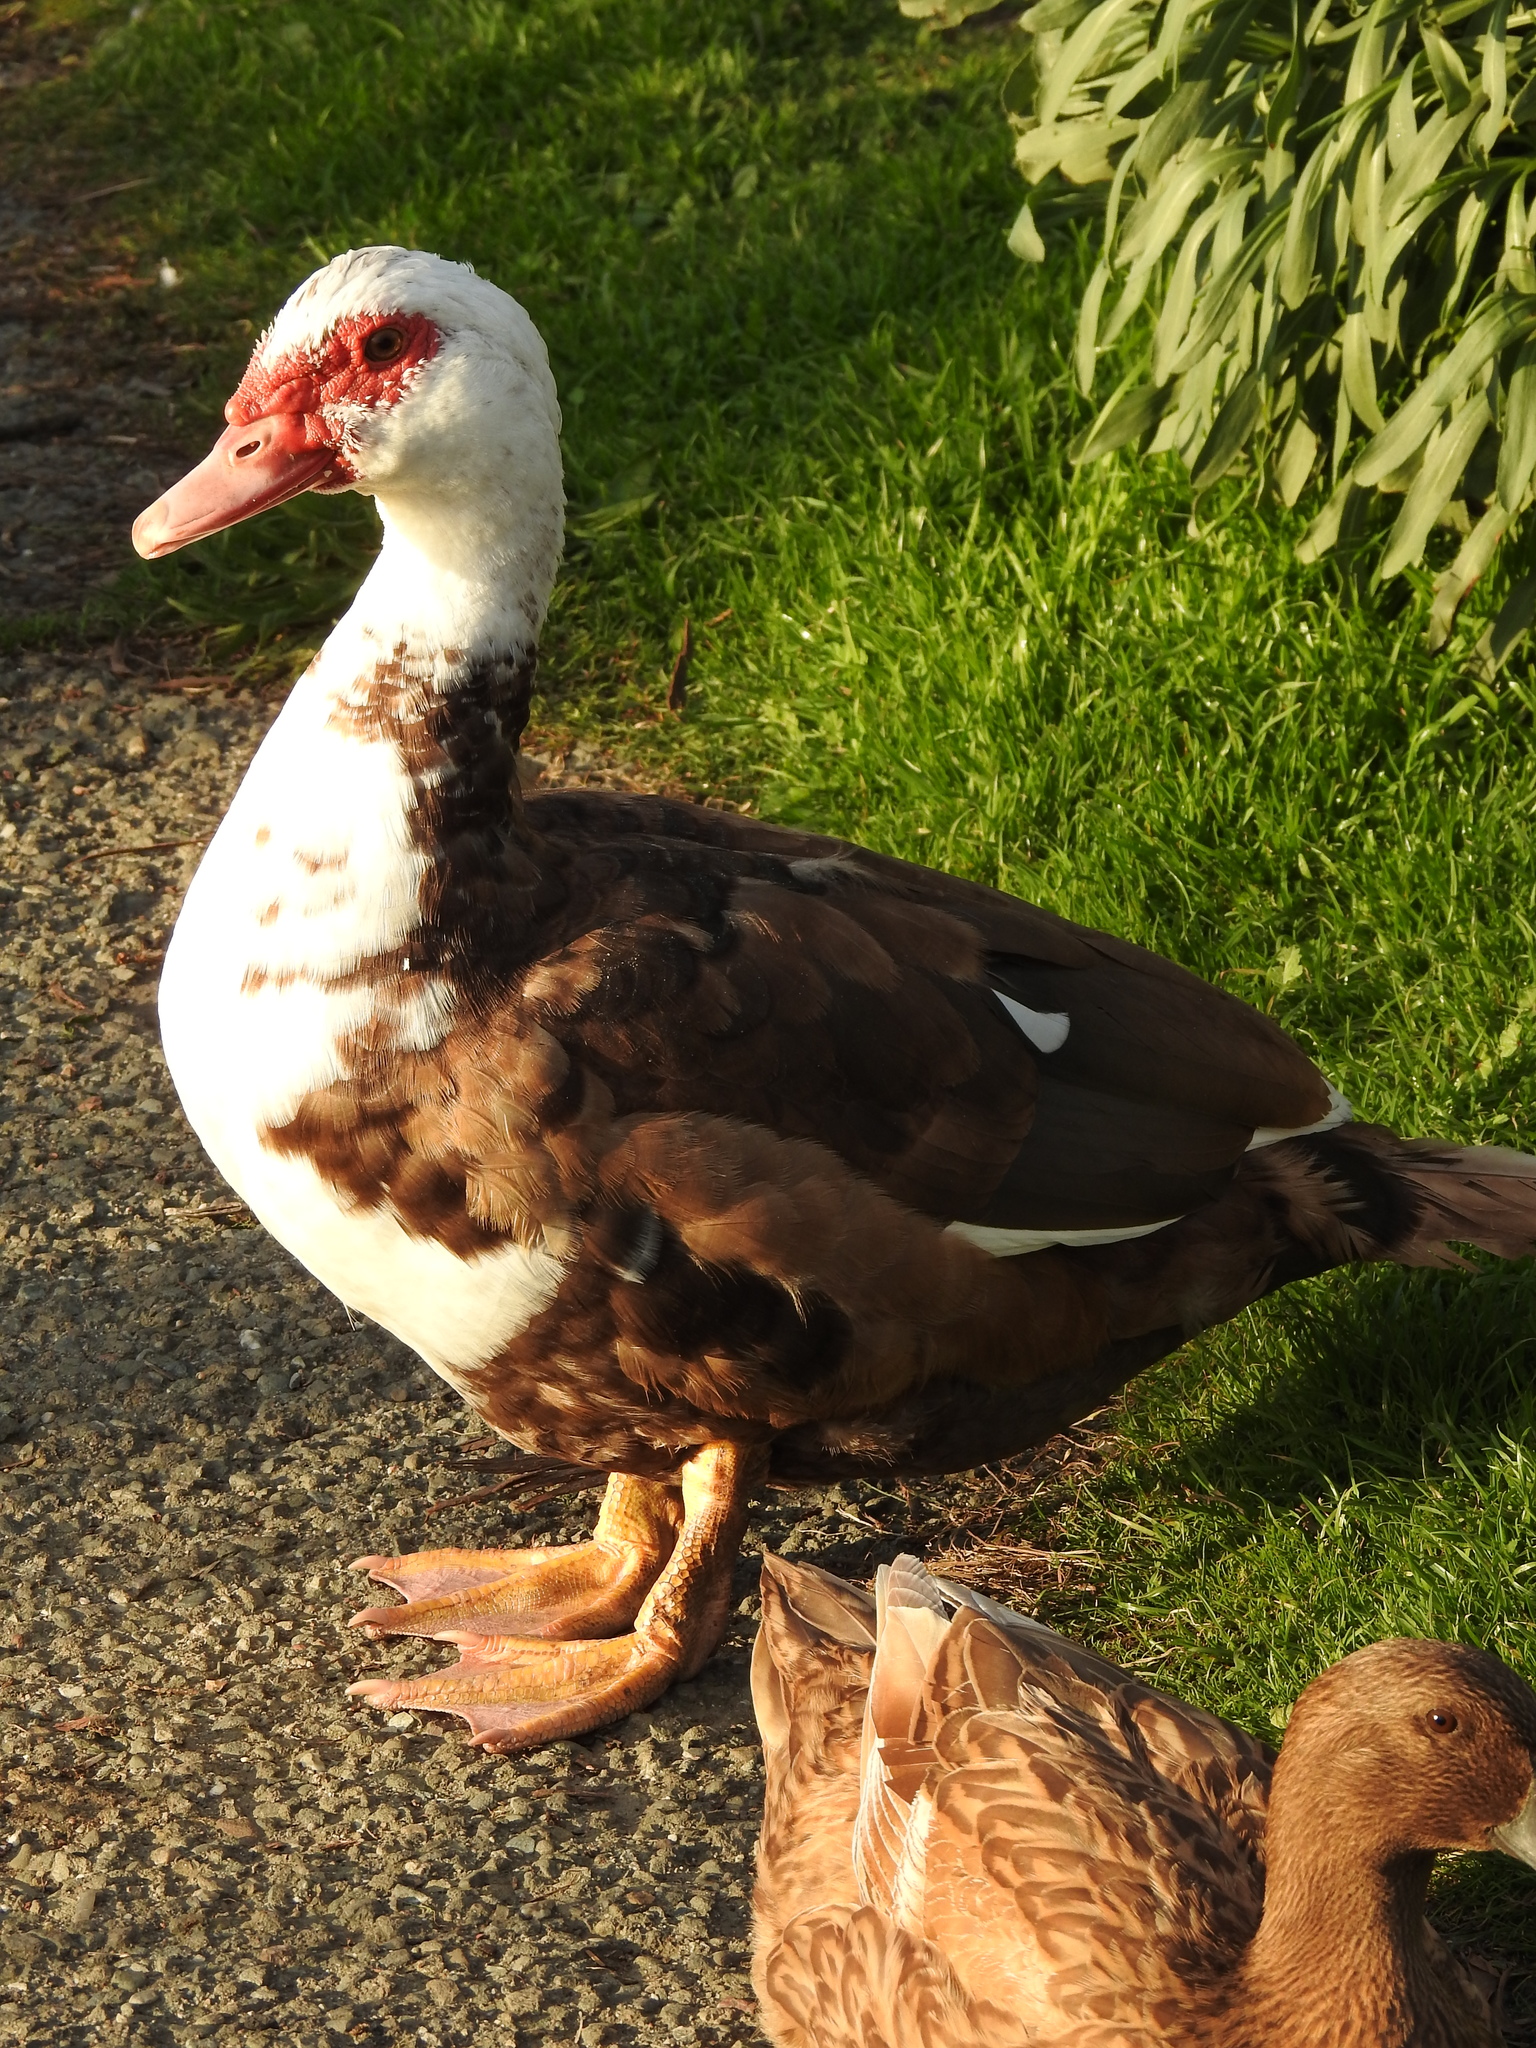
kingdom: Animalia
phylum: Chordata
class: Aves
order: Anseriformes
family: Anatidae
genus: Cairina
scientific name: Cairina moschata
